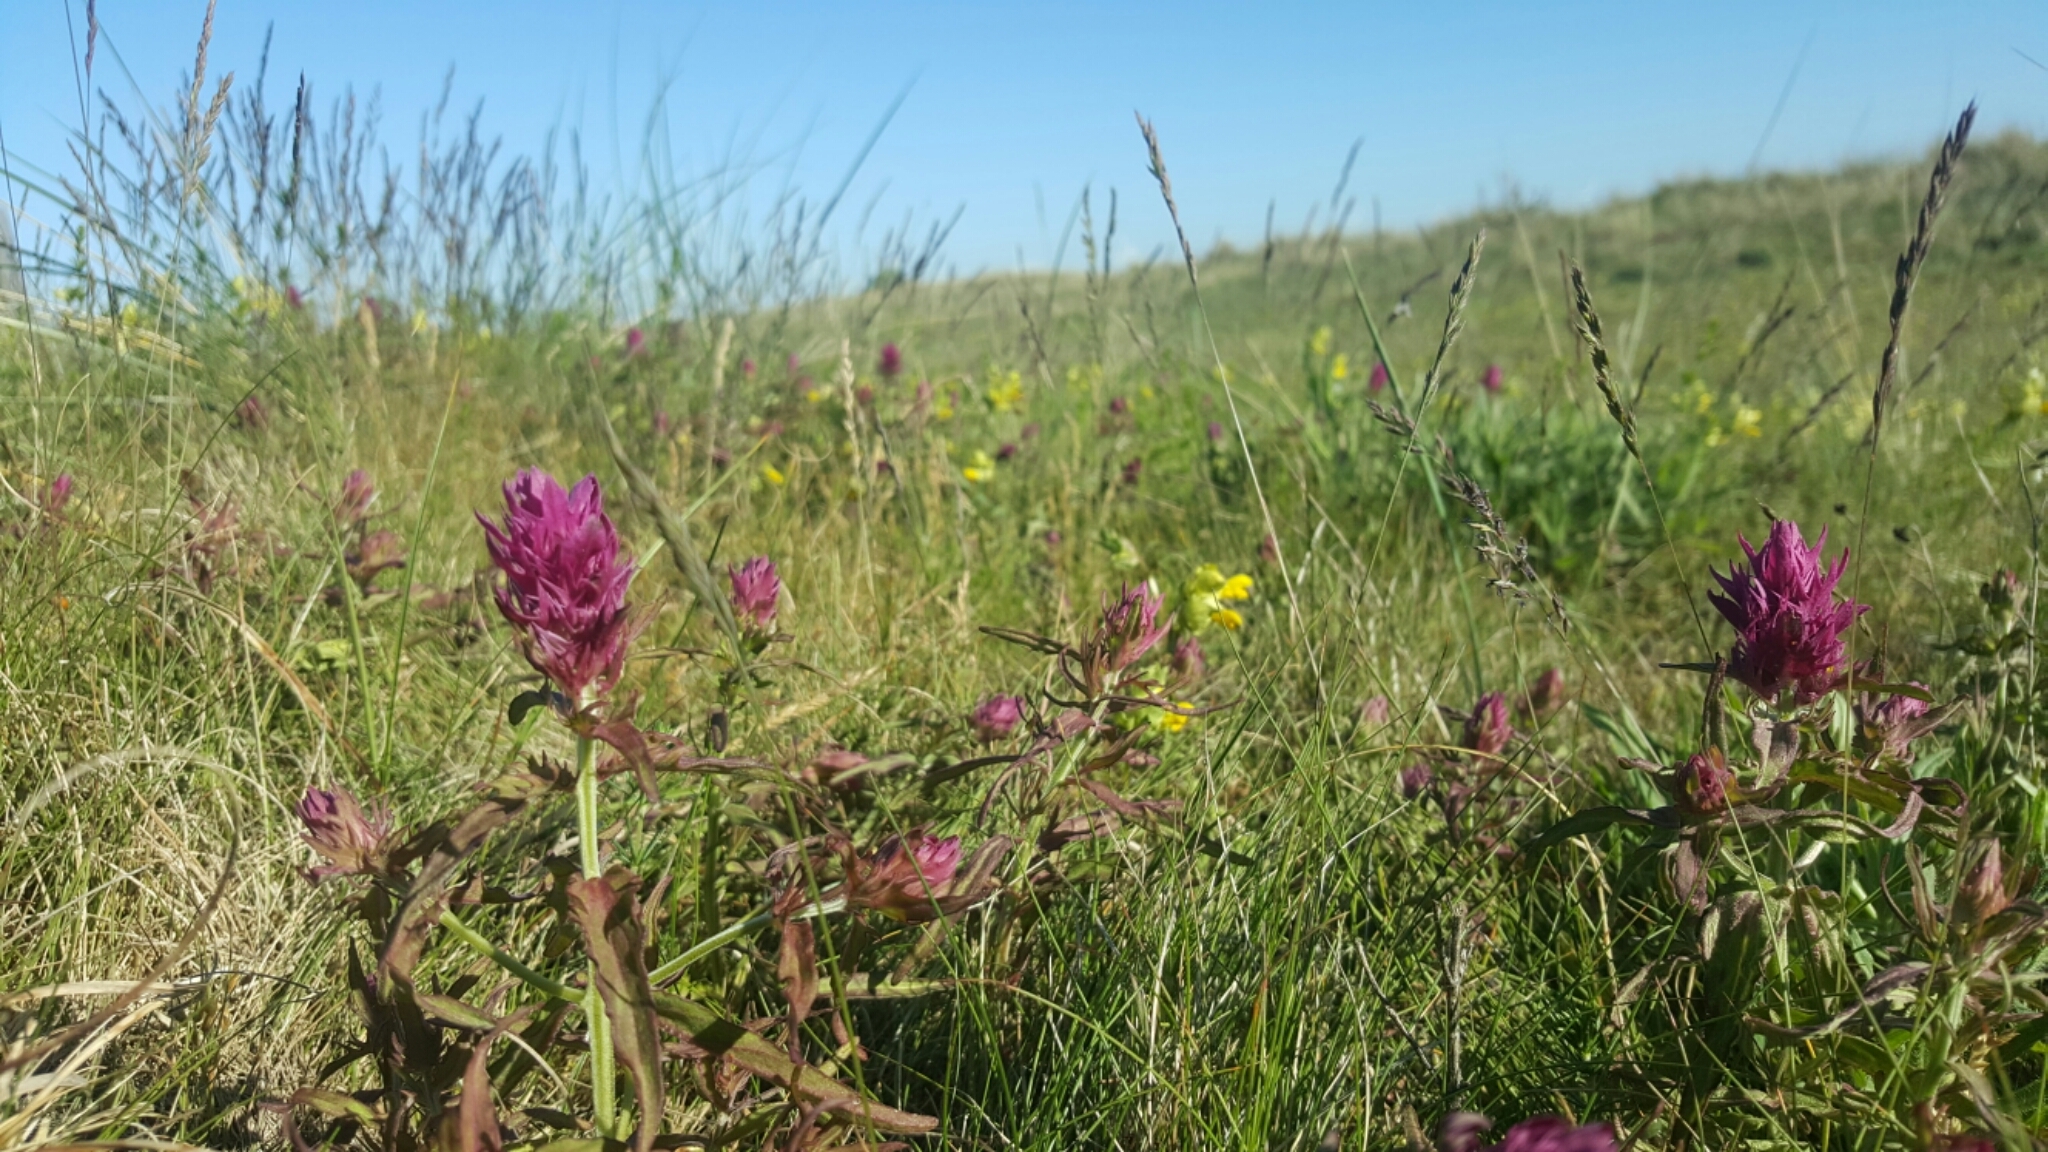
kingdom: Plantae
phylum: Tracheophyta
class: Magnoliopsida
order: Lamiales
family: Orobanchaceae
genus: Melampyrum
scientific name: Melampyrum arvense
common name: Field cow-wheat
